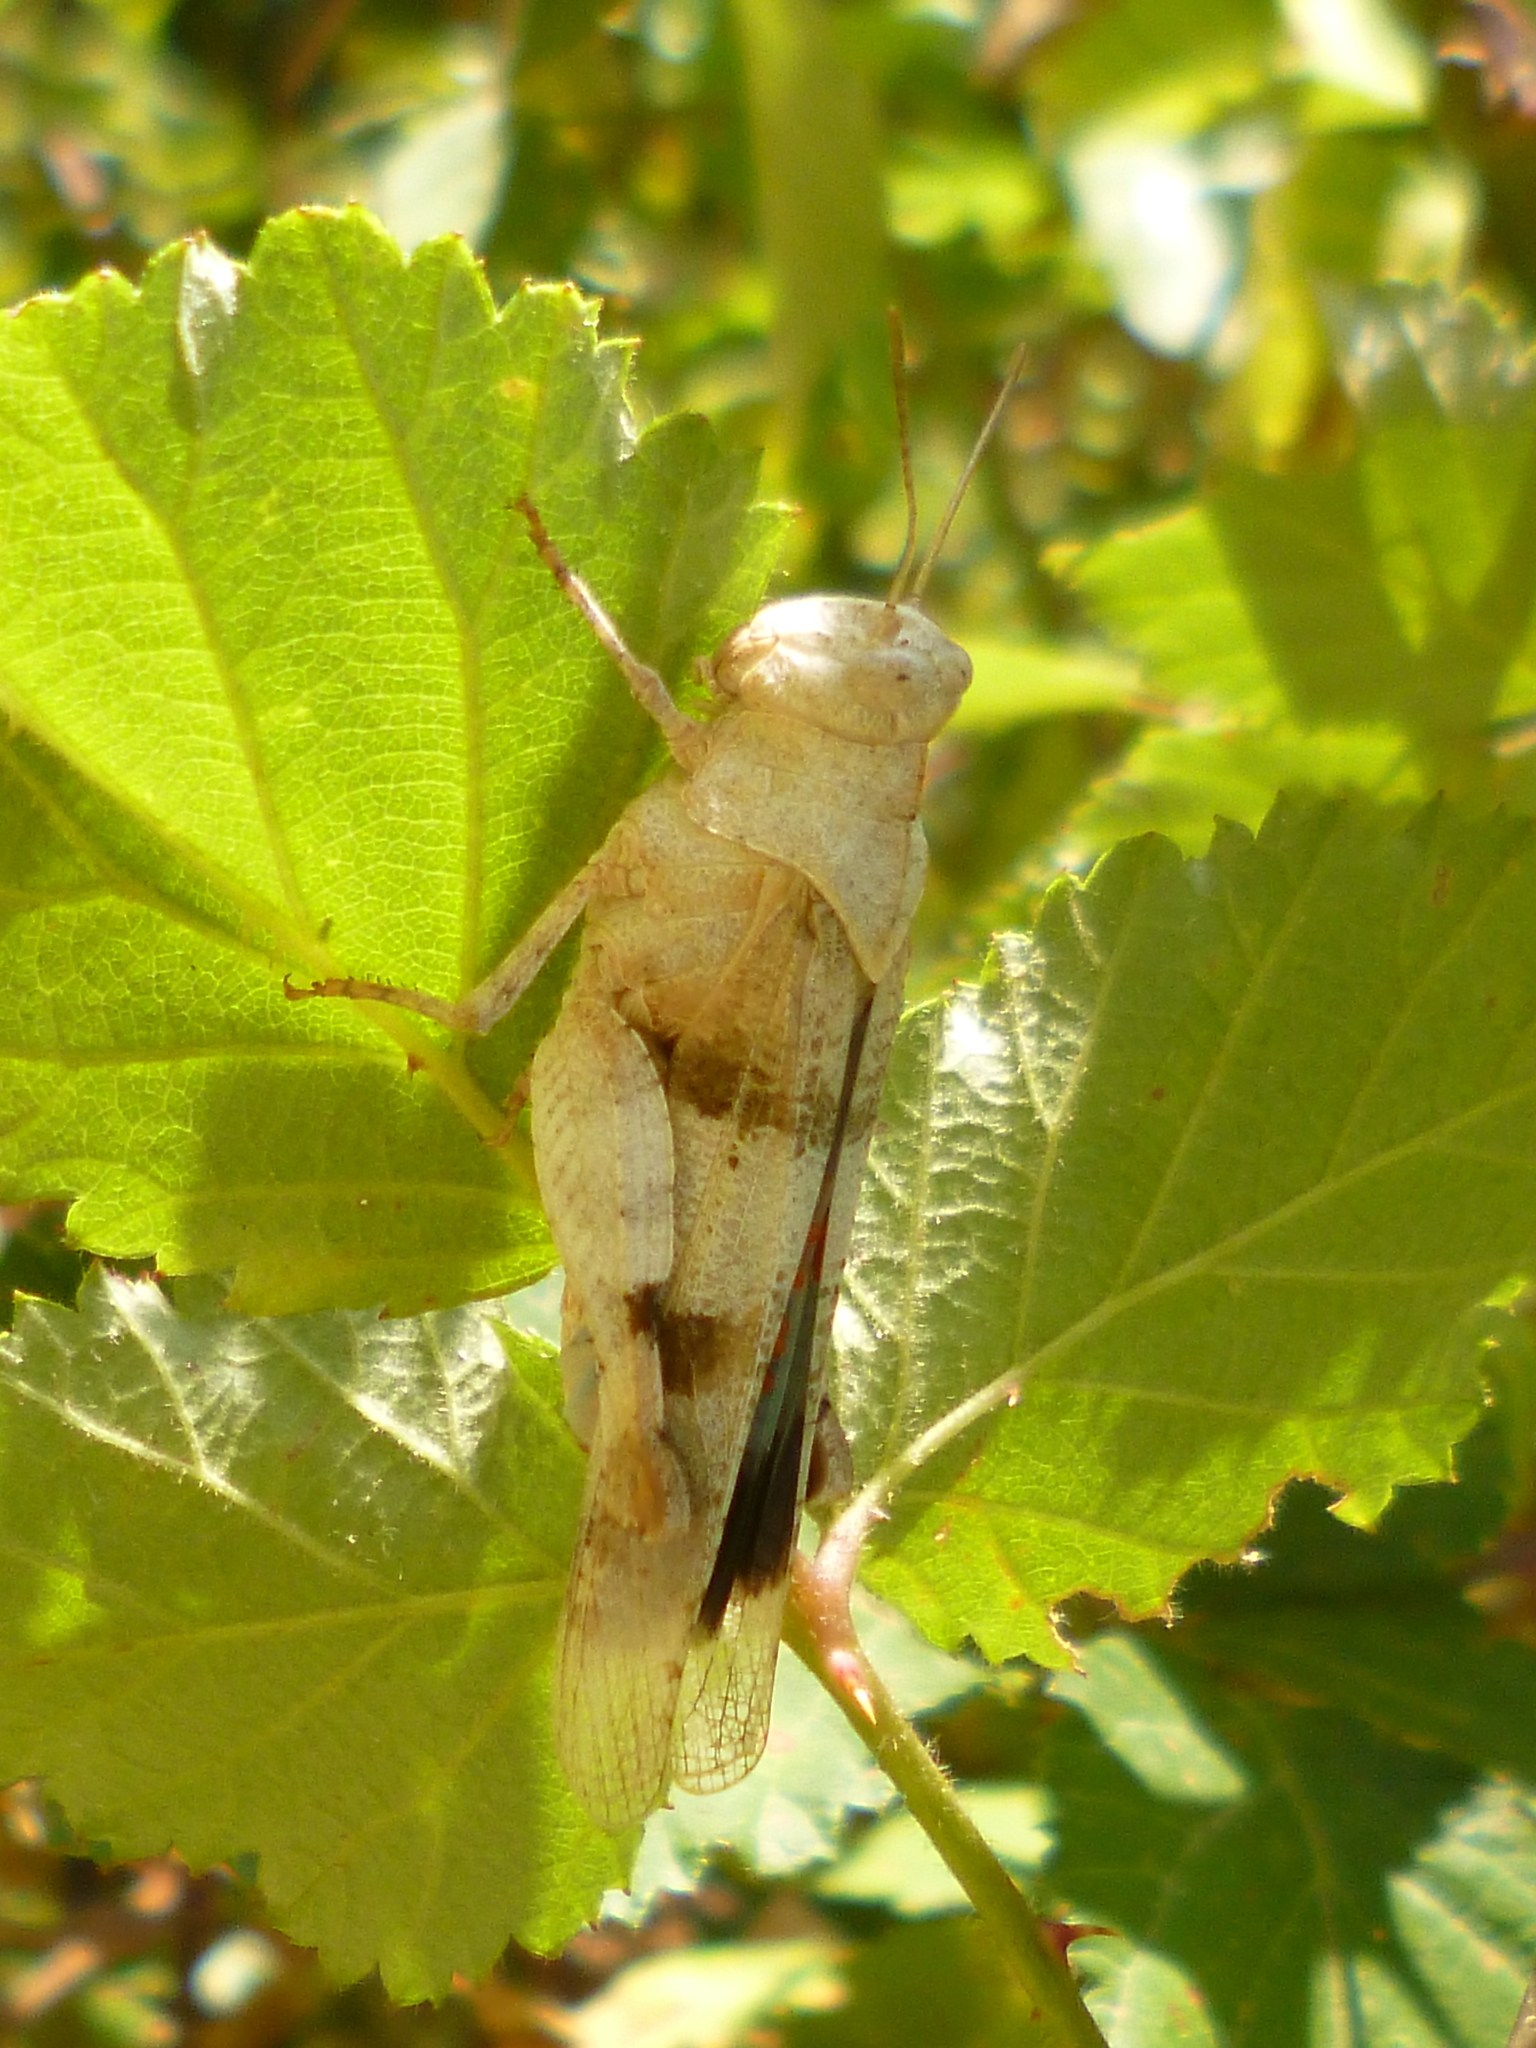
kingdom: Animalia
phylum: Arthropoda
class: Insecta
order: Orthoptera
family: Acrididae
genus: Oedipoda
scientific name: Oedipoda caerulescens
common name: Blue-winged grasshopper
